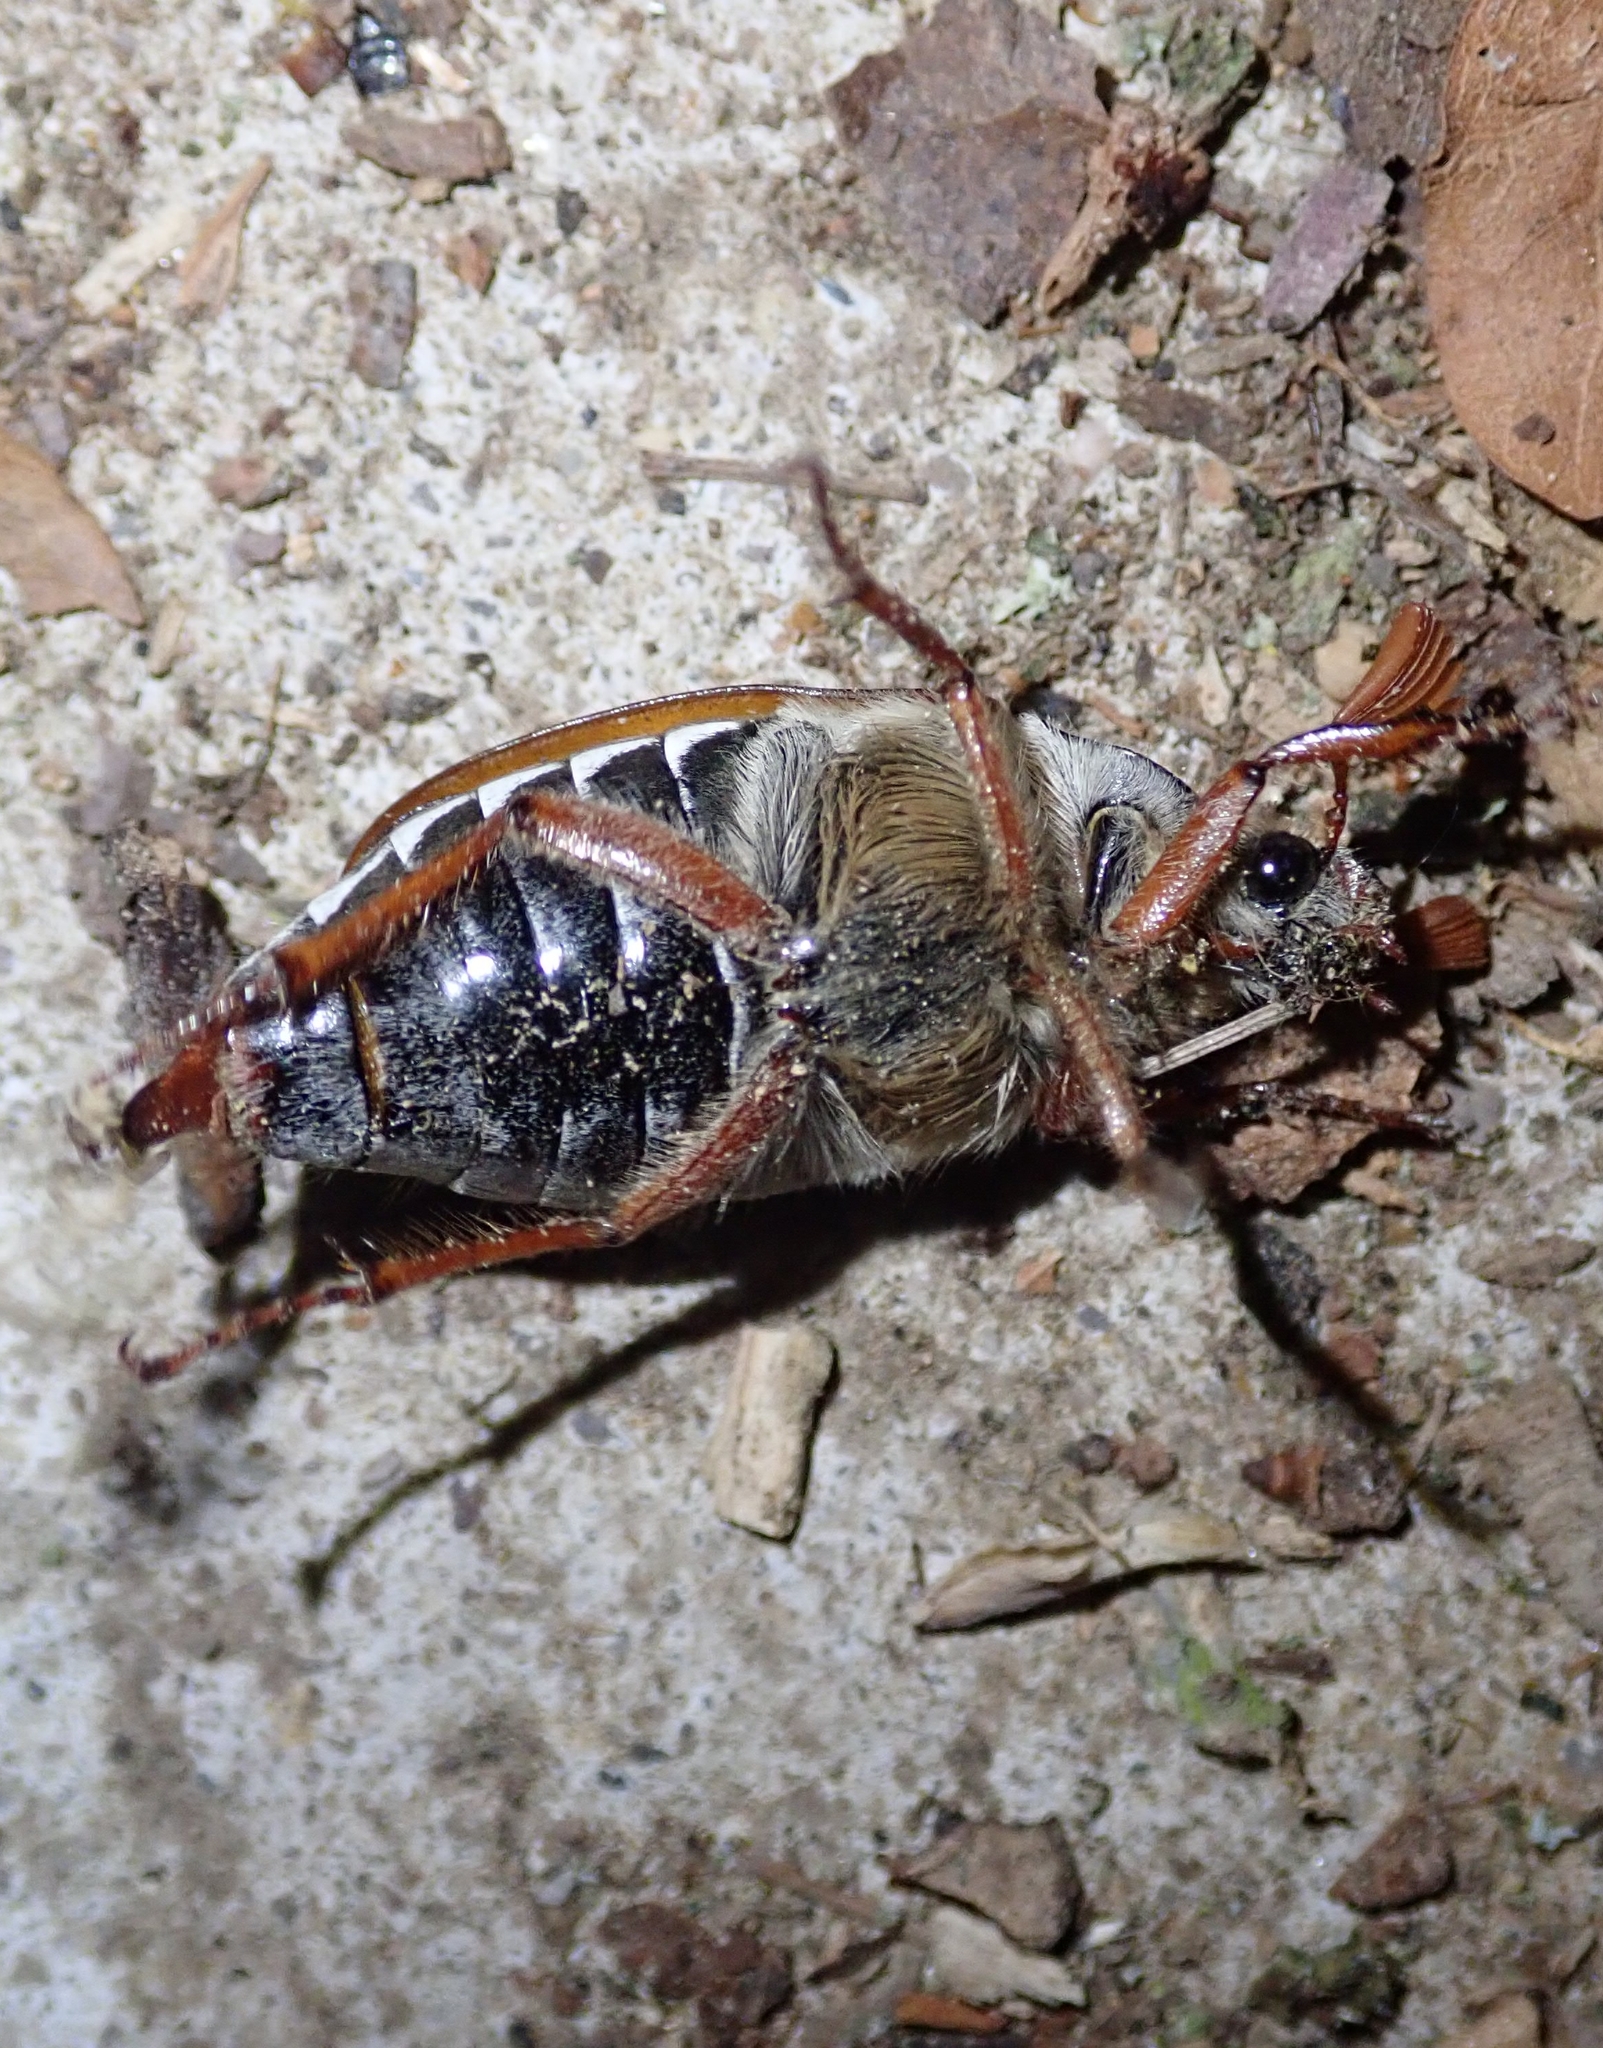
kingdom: Animalia
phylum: Arthropoda
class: Insecta
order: Coleoptera
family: Scarabaeidae
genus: Melolontha
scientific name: Melolontha melolontha
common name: Cockchafer maybeetle
